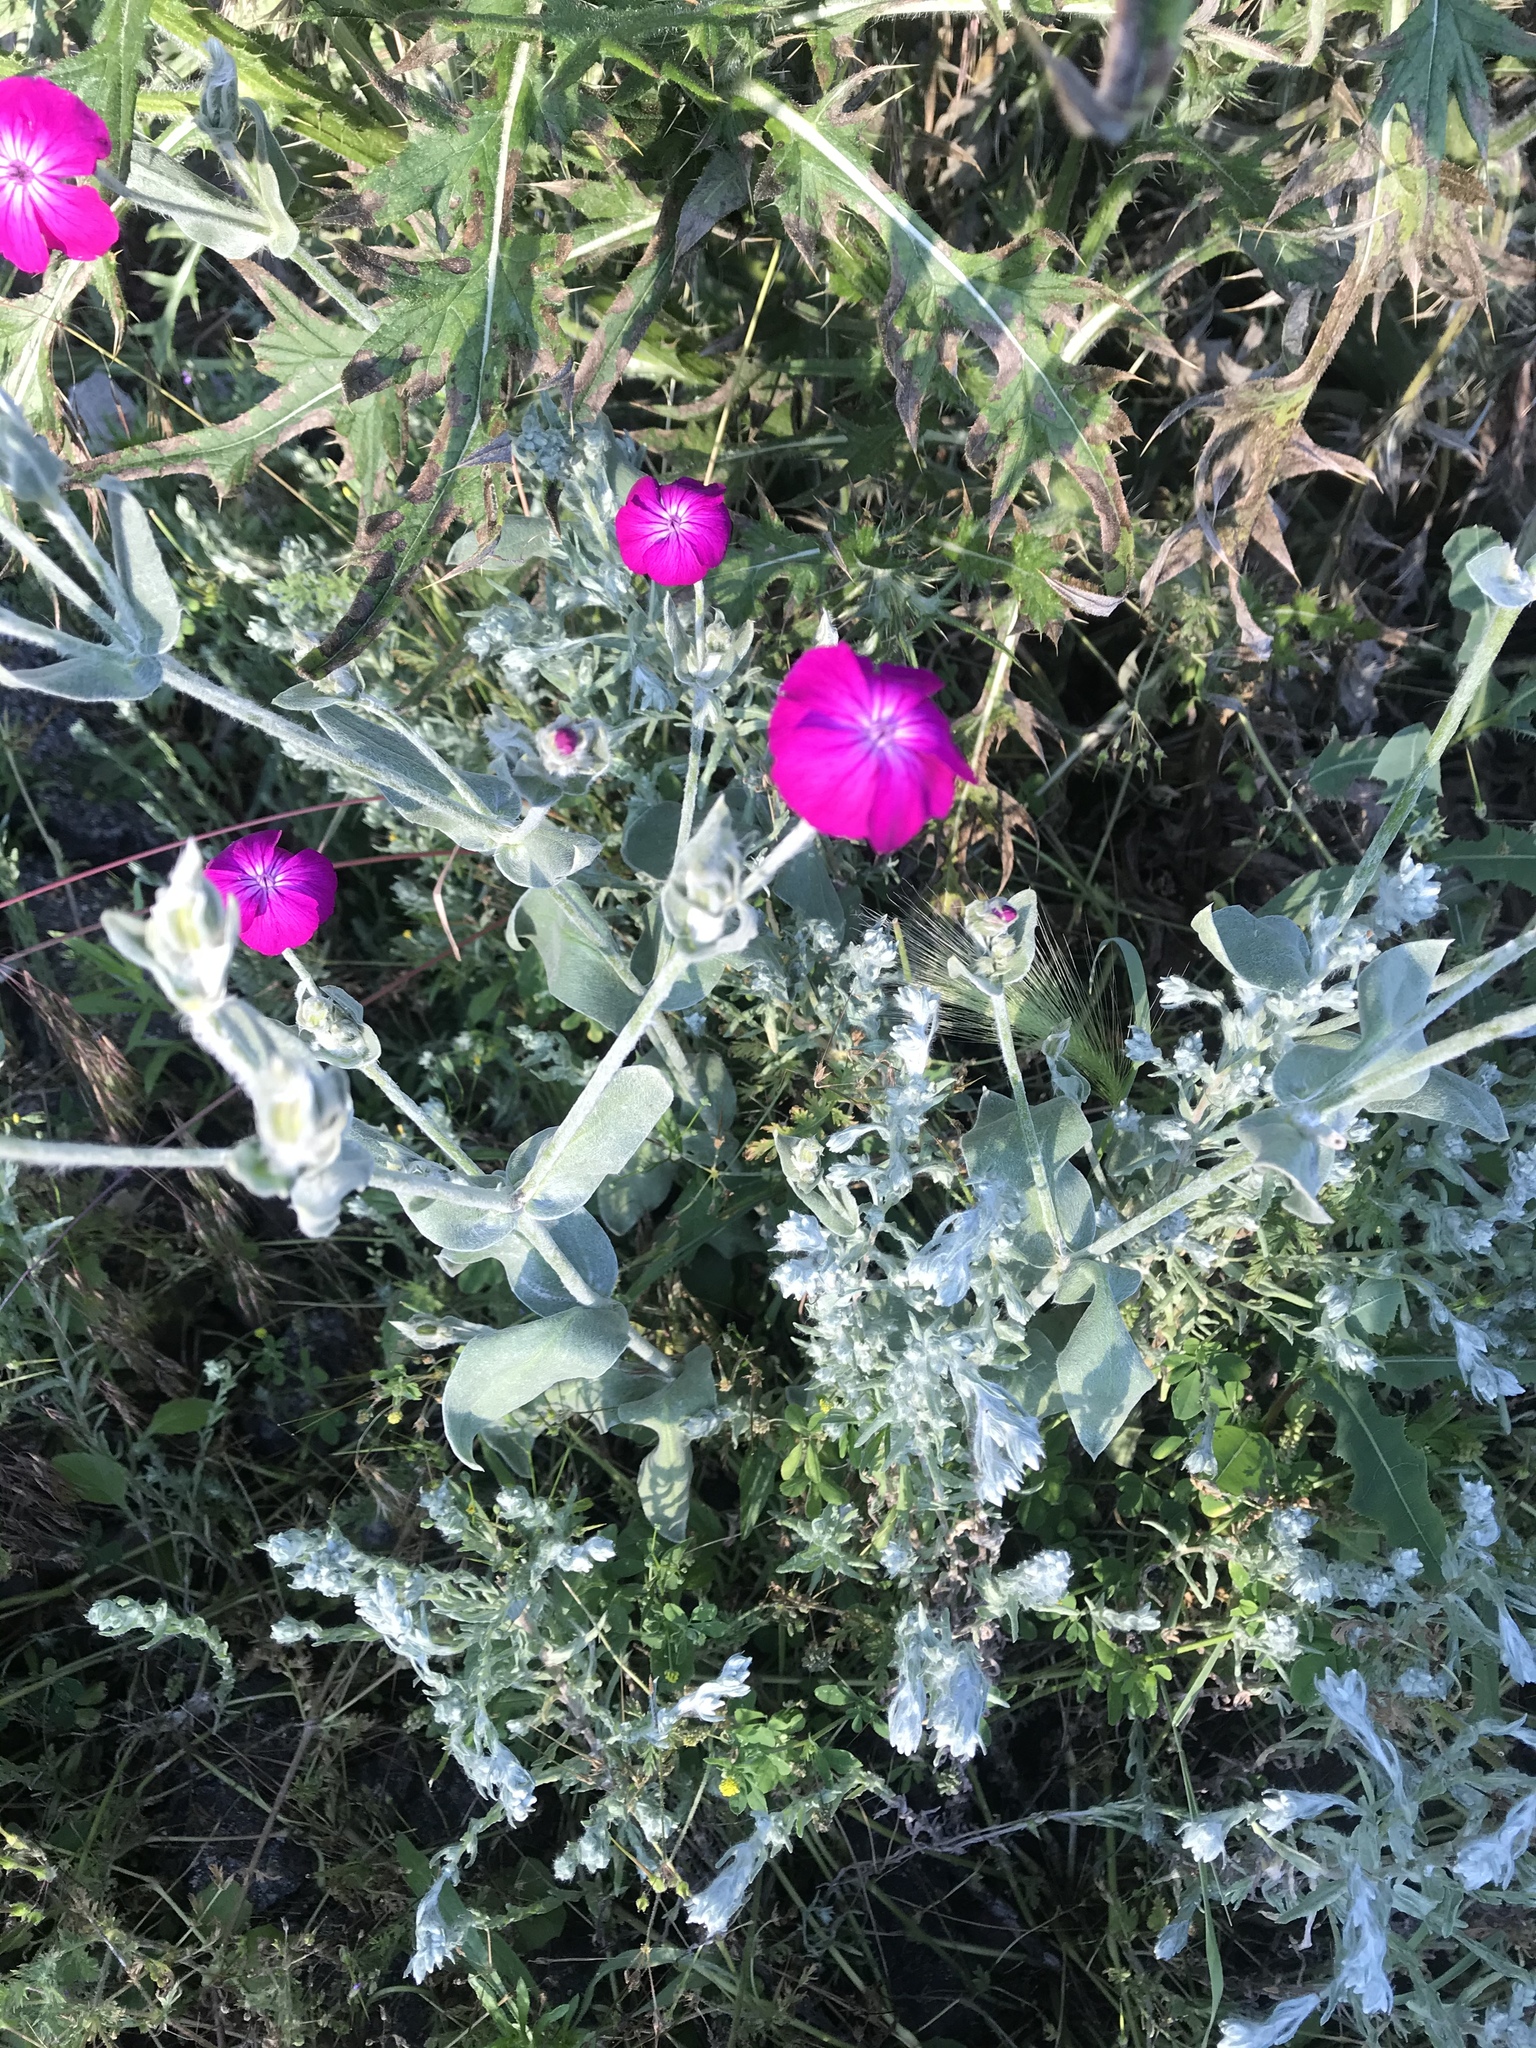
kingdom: Plantae
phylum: Tracheophyta
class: Magnoliopsida
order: Caryophyllales
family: Caryophyllaceae
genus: Silene
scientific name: Silene coronaria
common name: Rose campion
